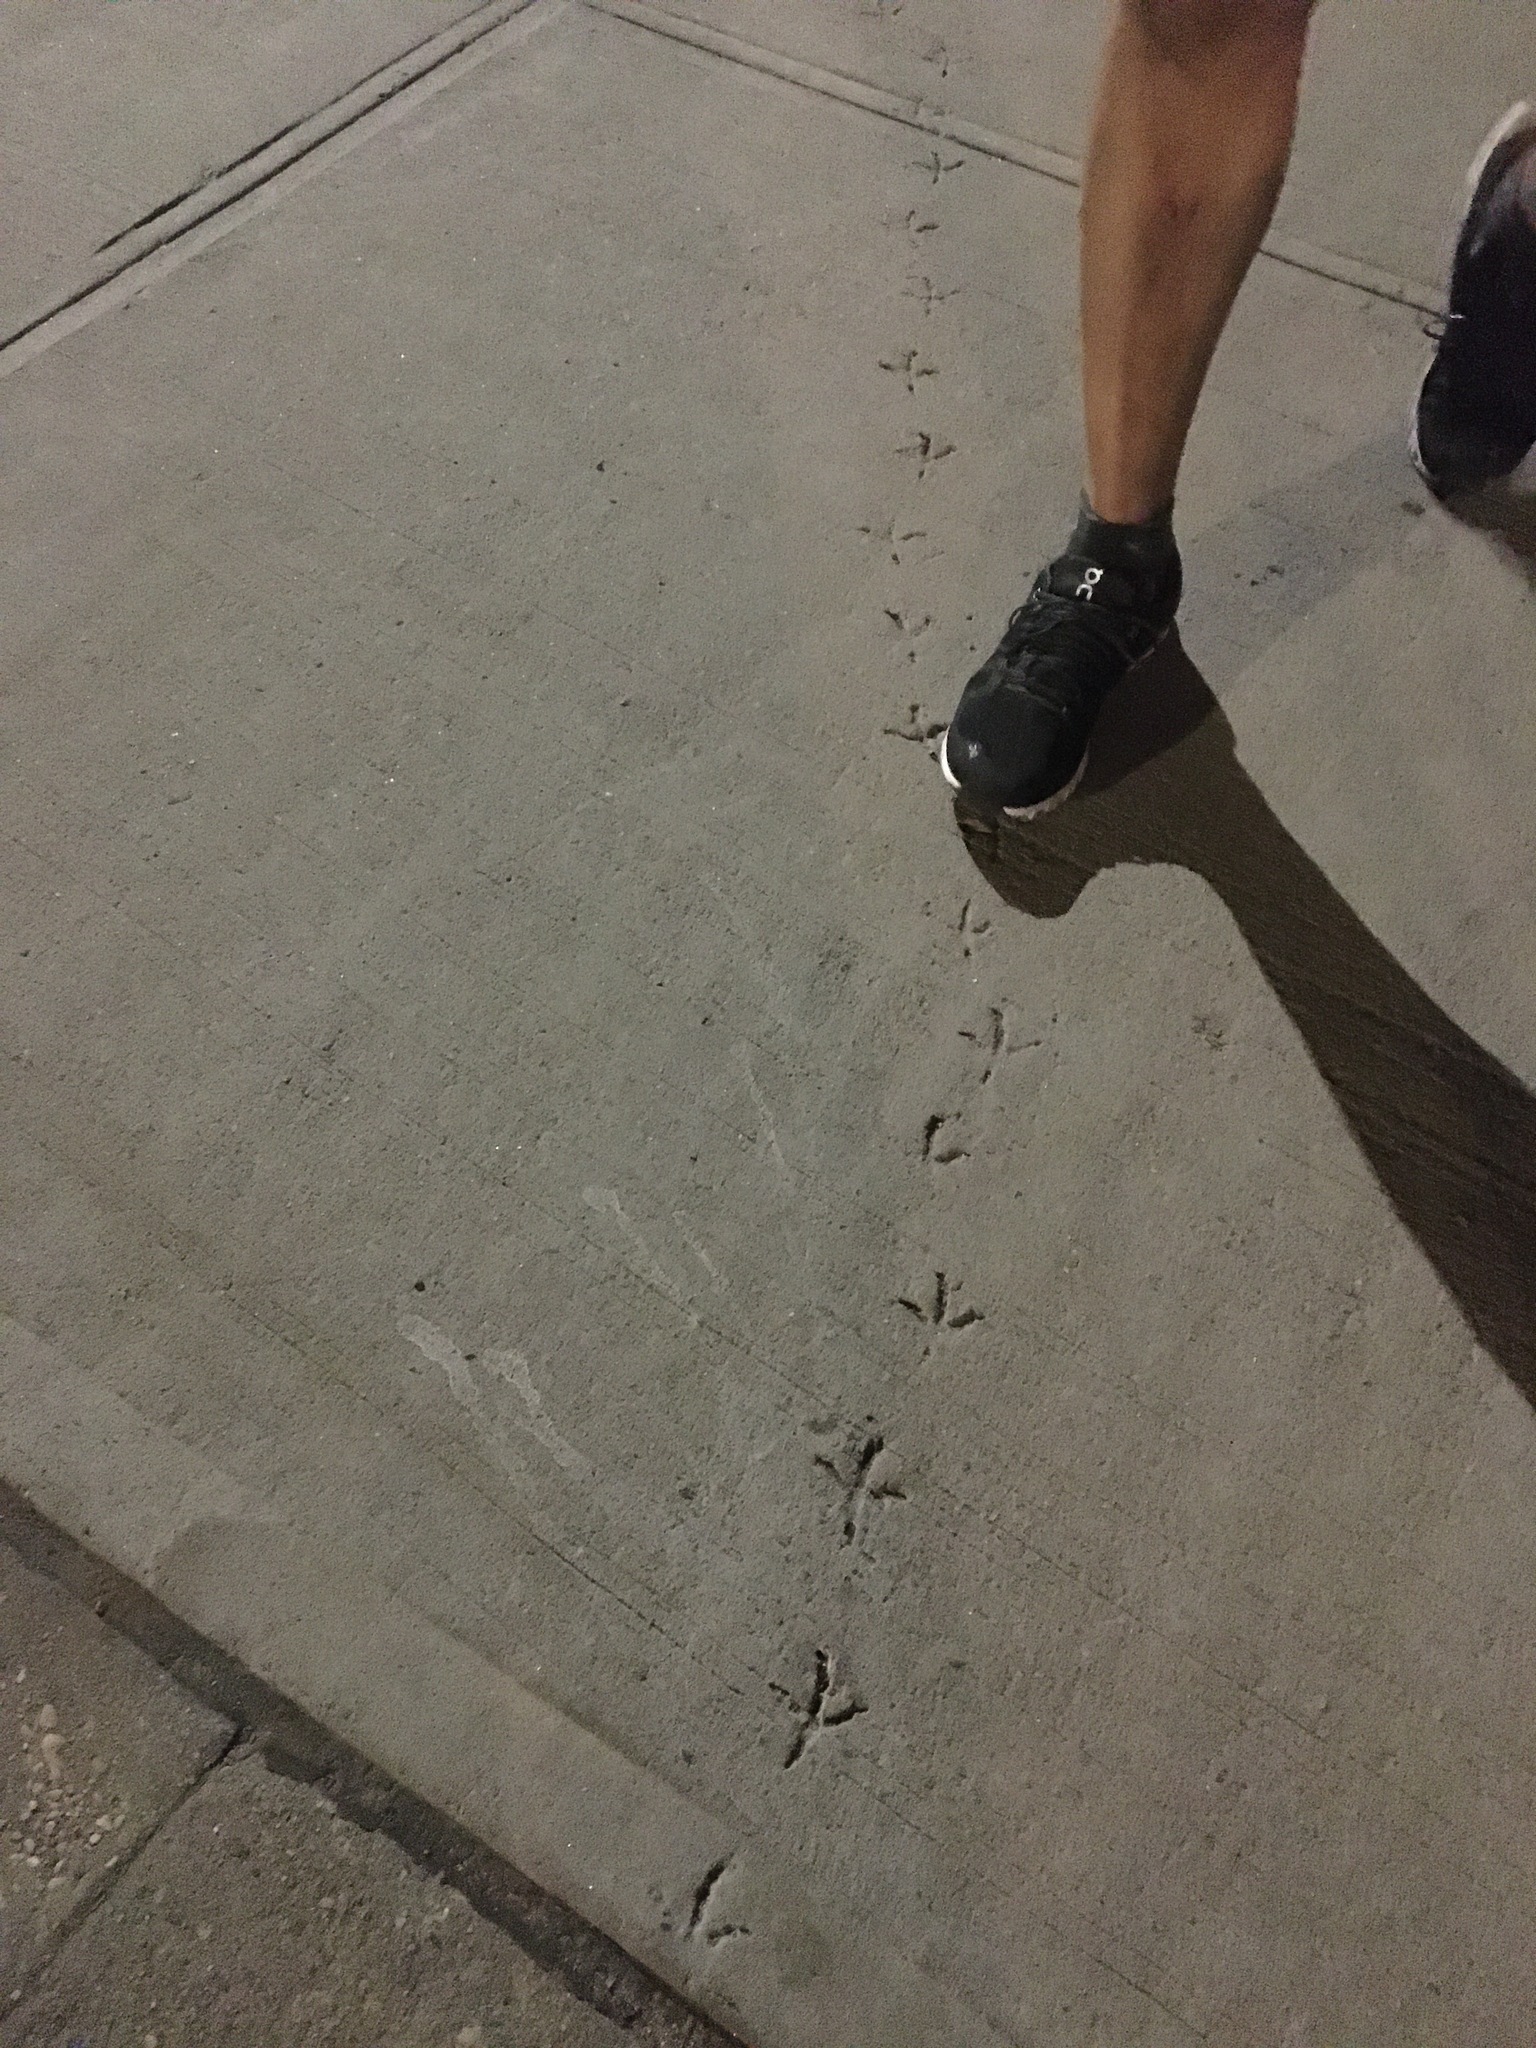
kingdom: Animalia
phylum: Chordata
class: Aves
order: Columbiformes
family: Columbidae
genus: Columba
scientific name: Columba livia
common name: Rock pigeon
